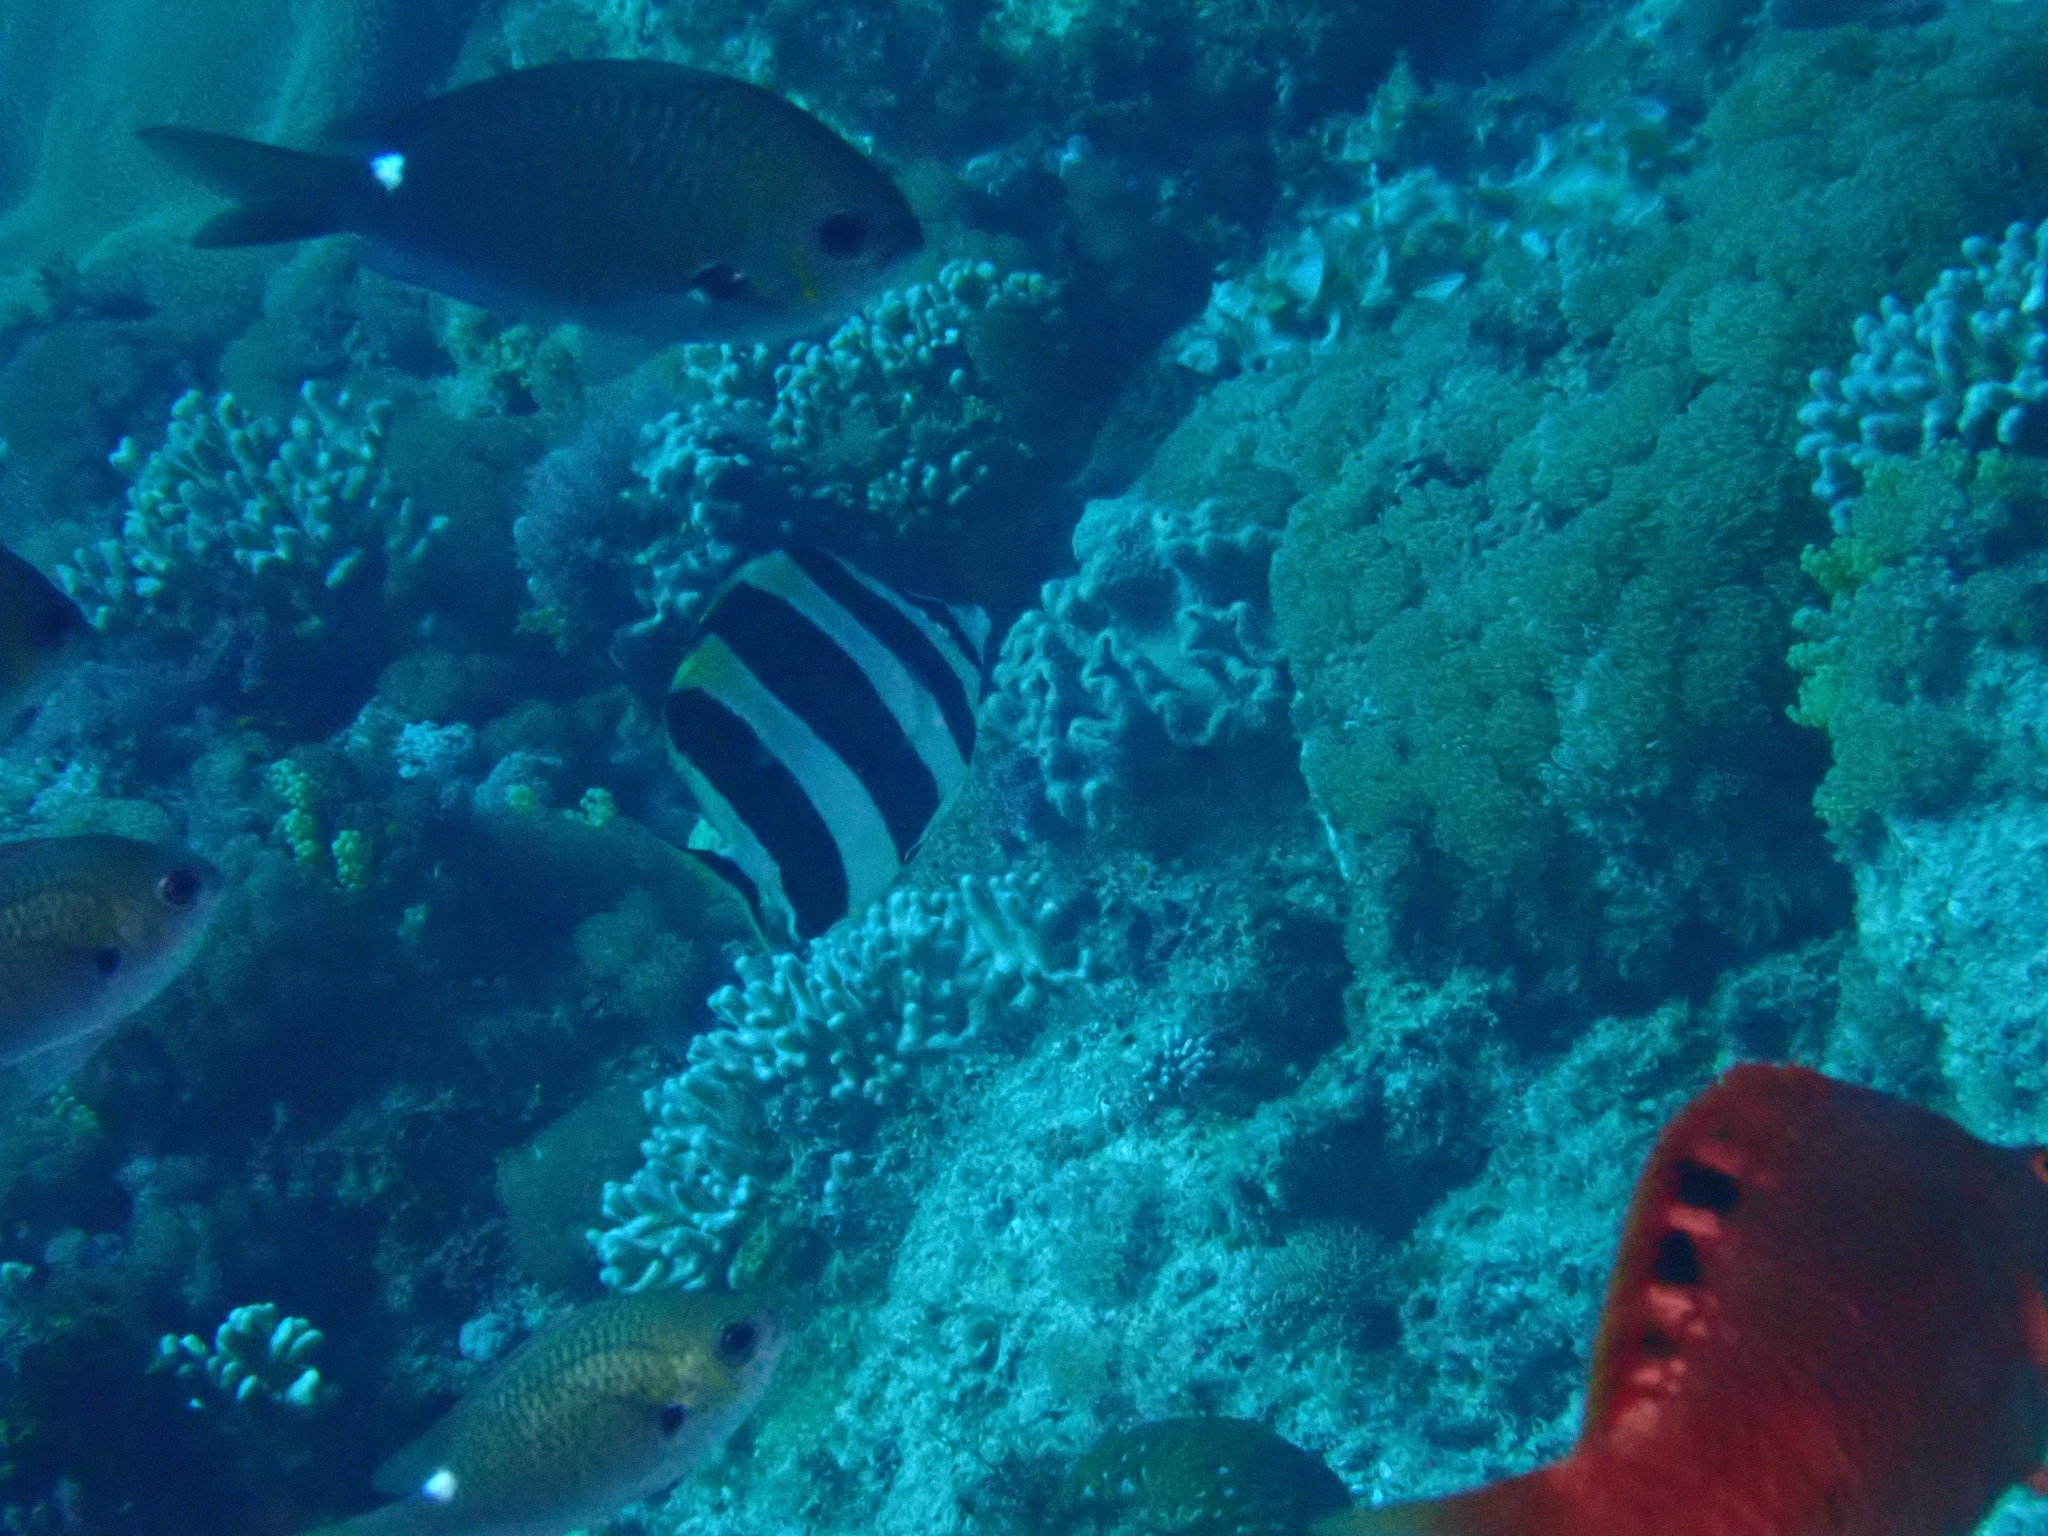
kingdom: Animalia
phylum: Chordata
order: Perciformes
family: Chaetodontidae
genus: Amphichaetodon
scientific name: Amphichaetodon howensis
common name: Broad-barred butterflyfish
